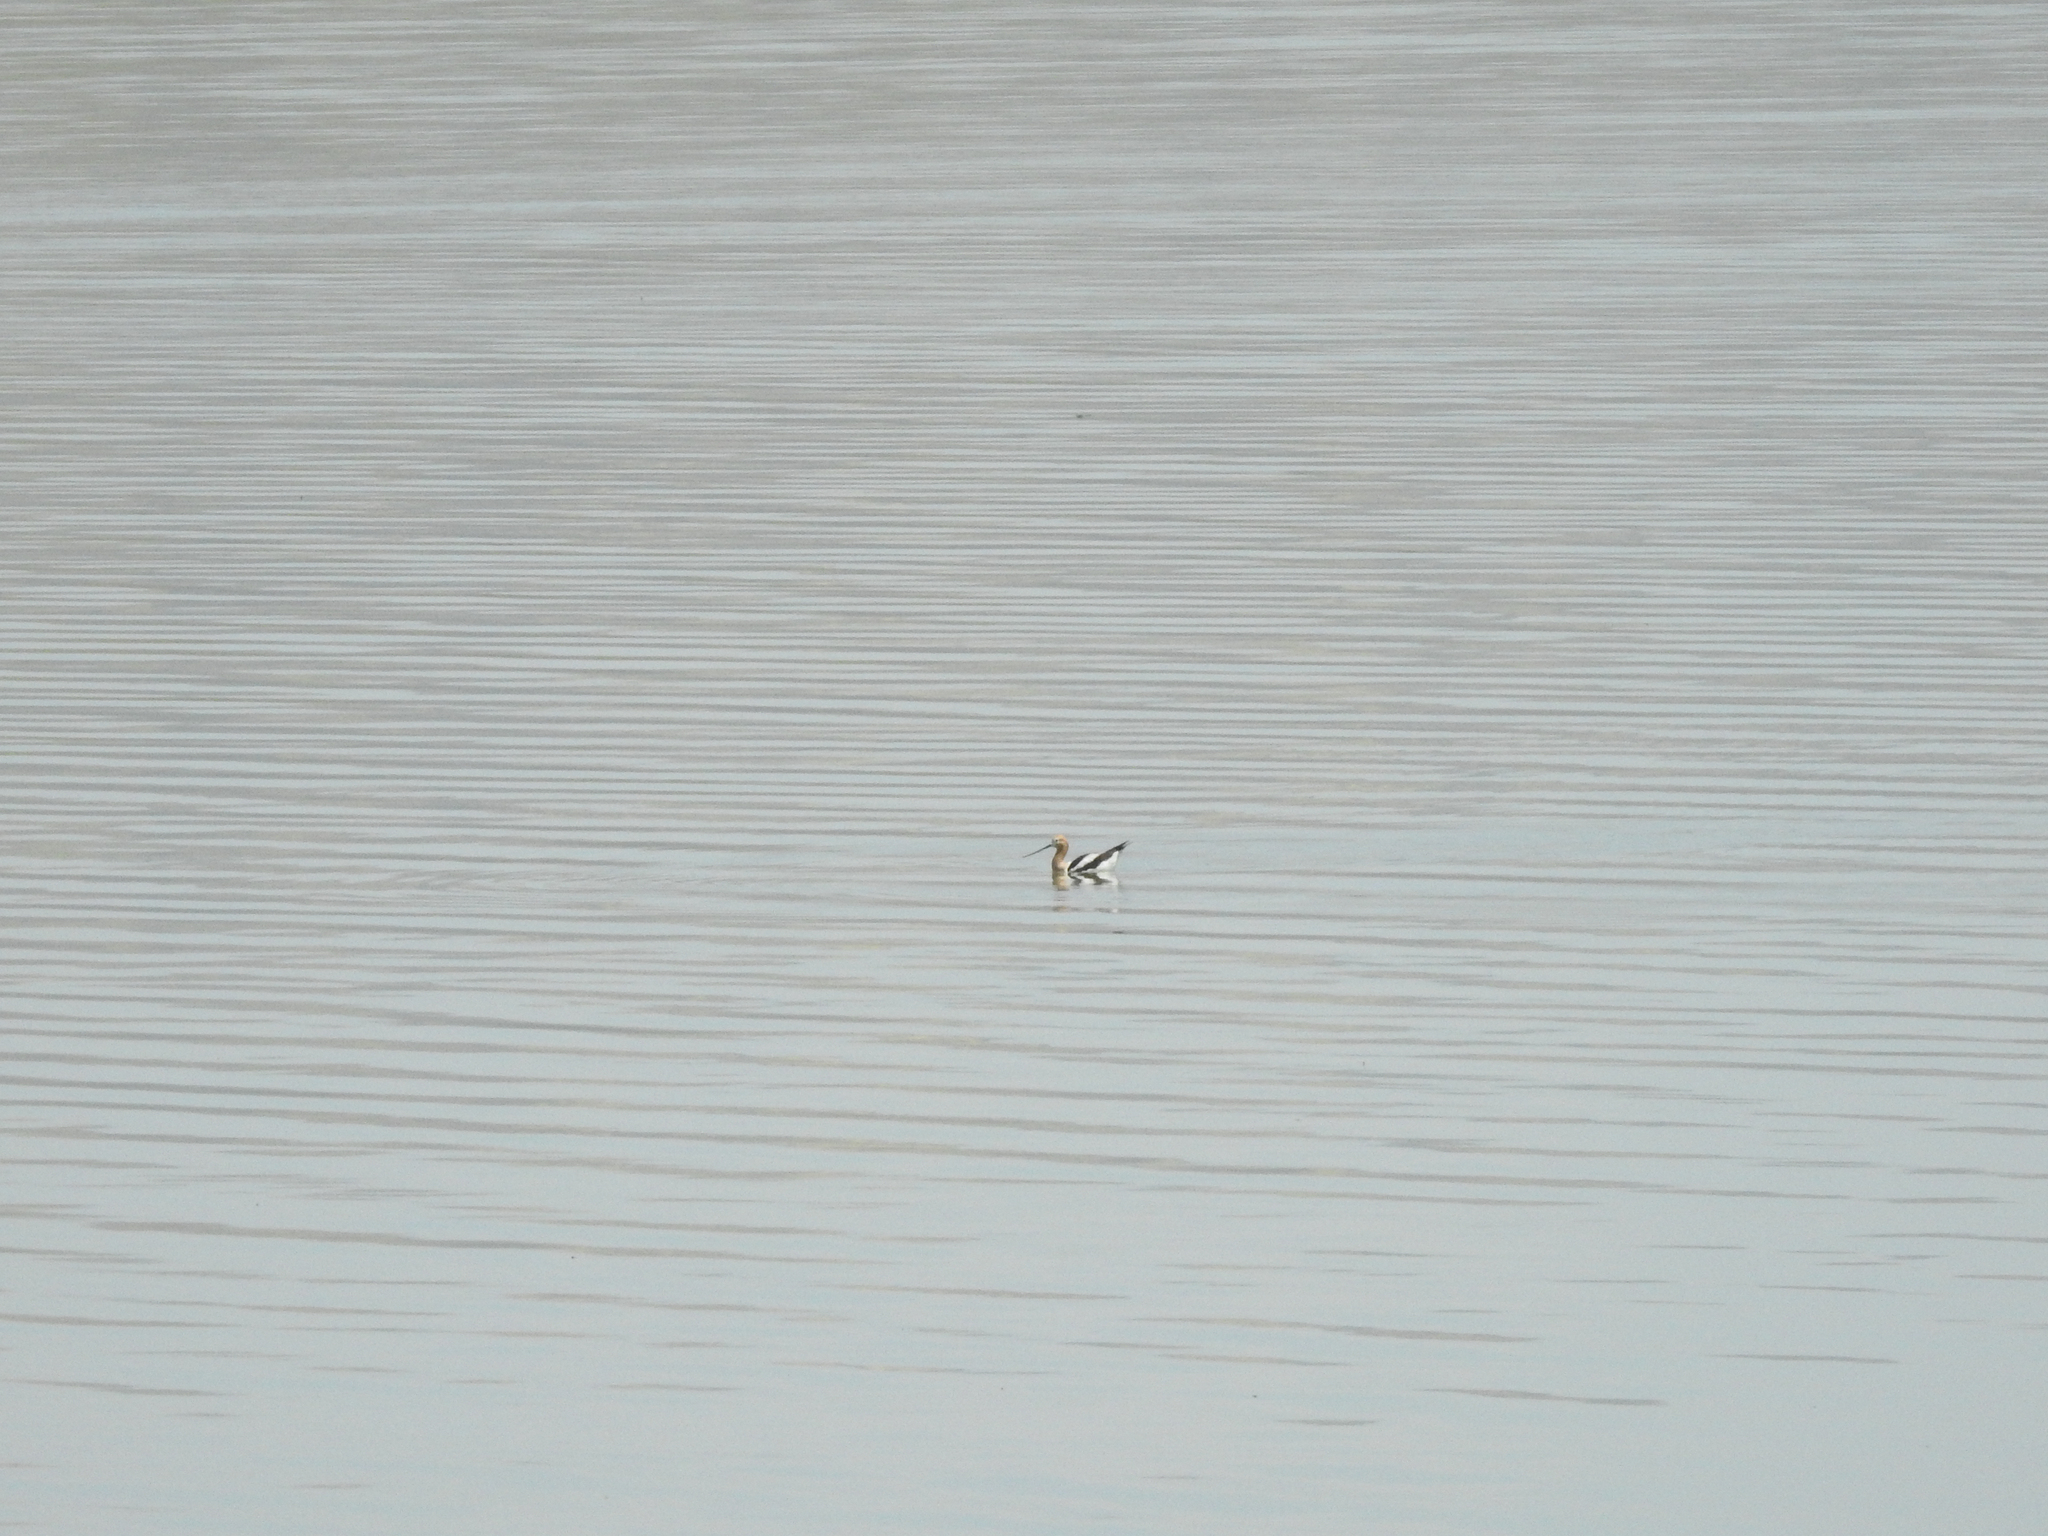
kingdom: Animalia
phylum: Chordata
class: Aves
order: Charadriiformes
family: Recurvirostridae
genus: Recurvirostra
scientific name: Recurvirostra americana
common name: American avocet
